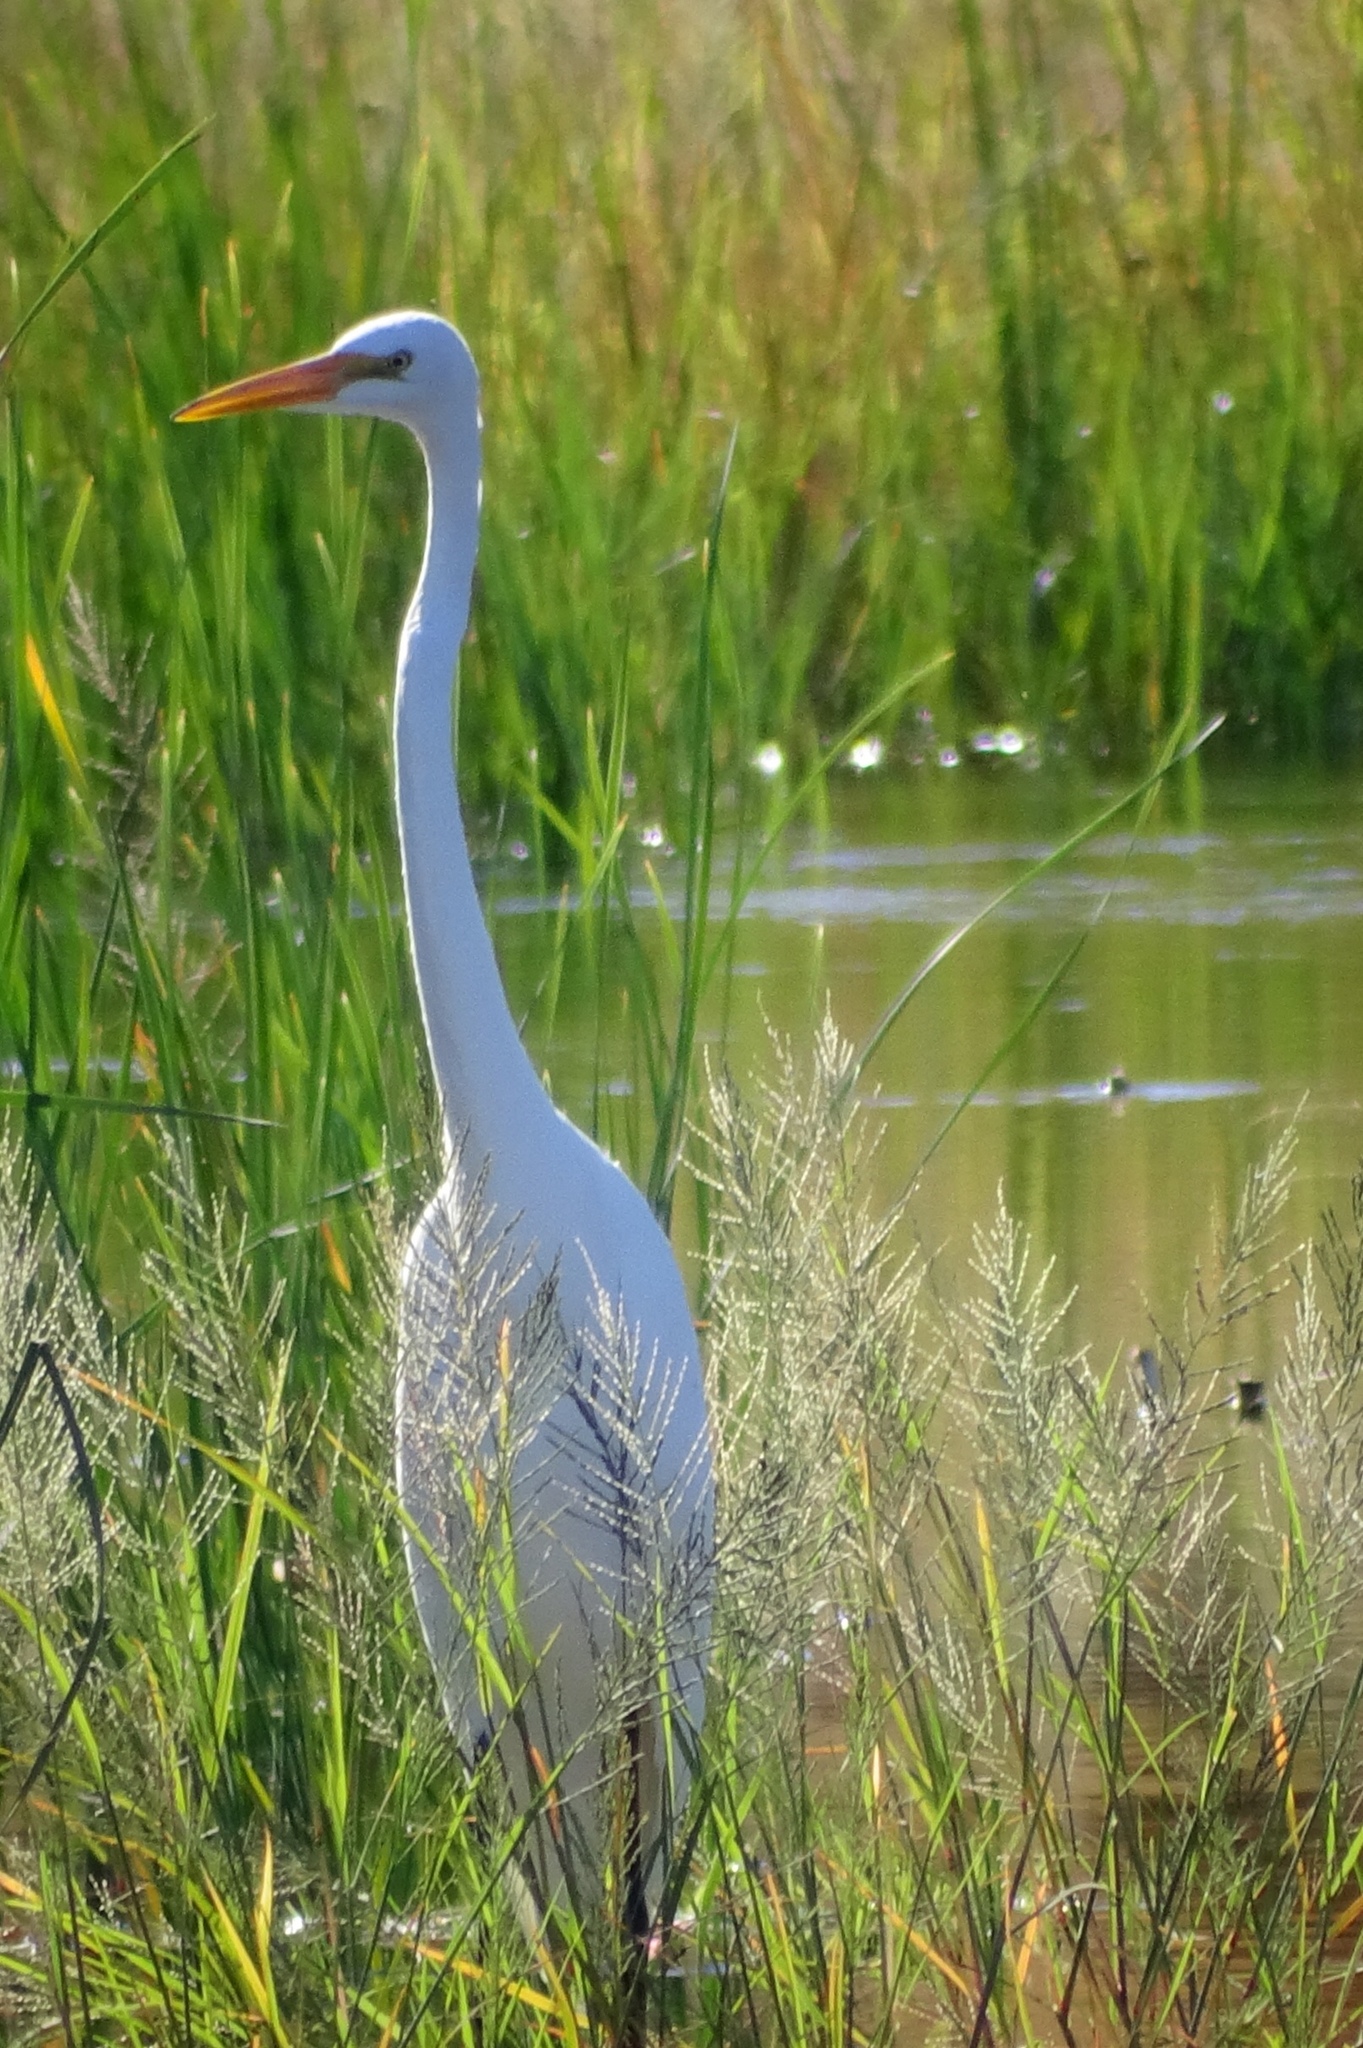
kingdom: Animalia
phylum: Chordata
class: Aves
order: Pelecaniformes
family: Ardeidae
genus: Ardea
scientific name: Ardea alba
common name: Great egret
